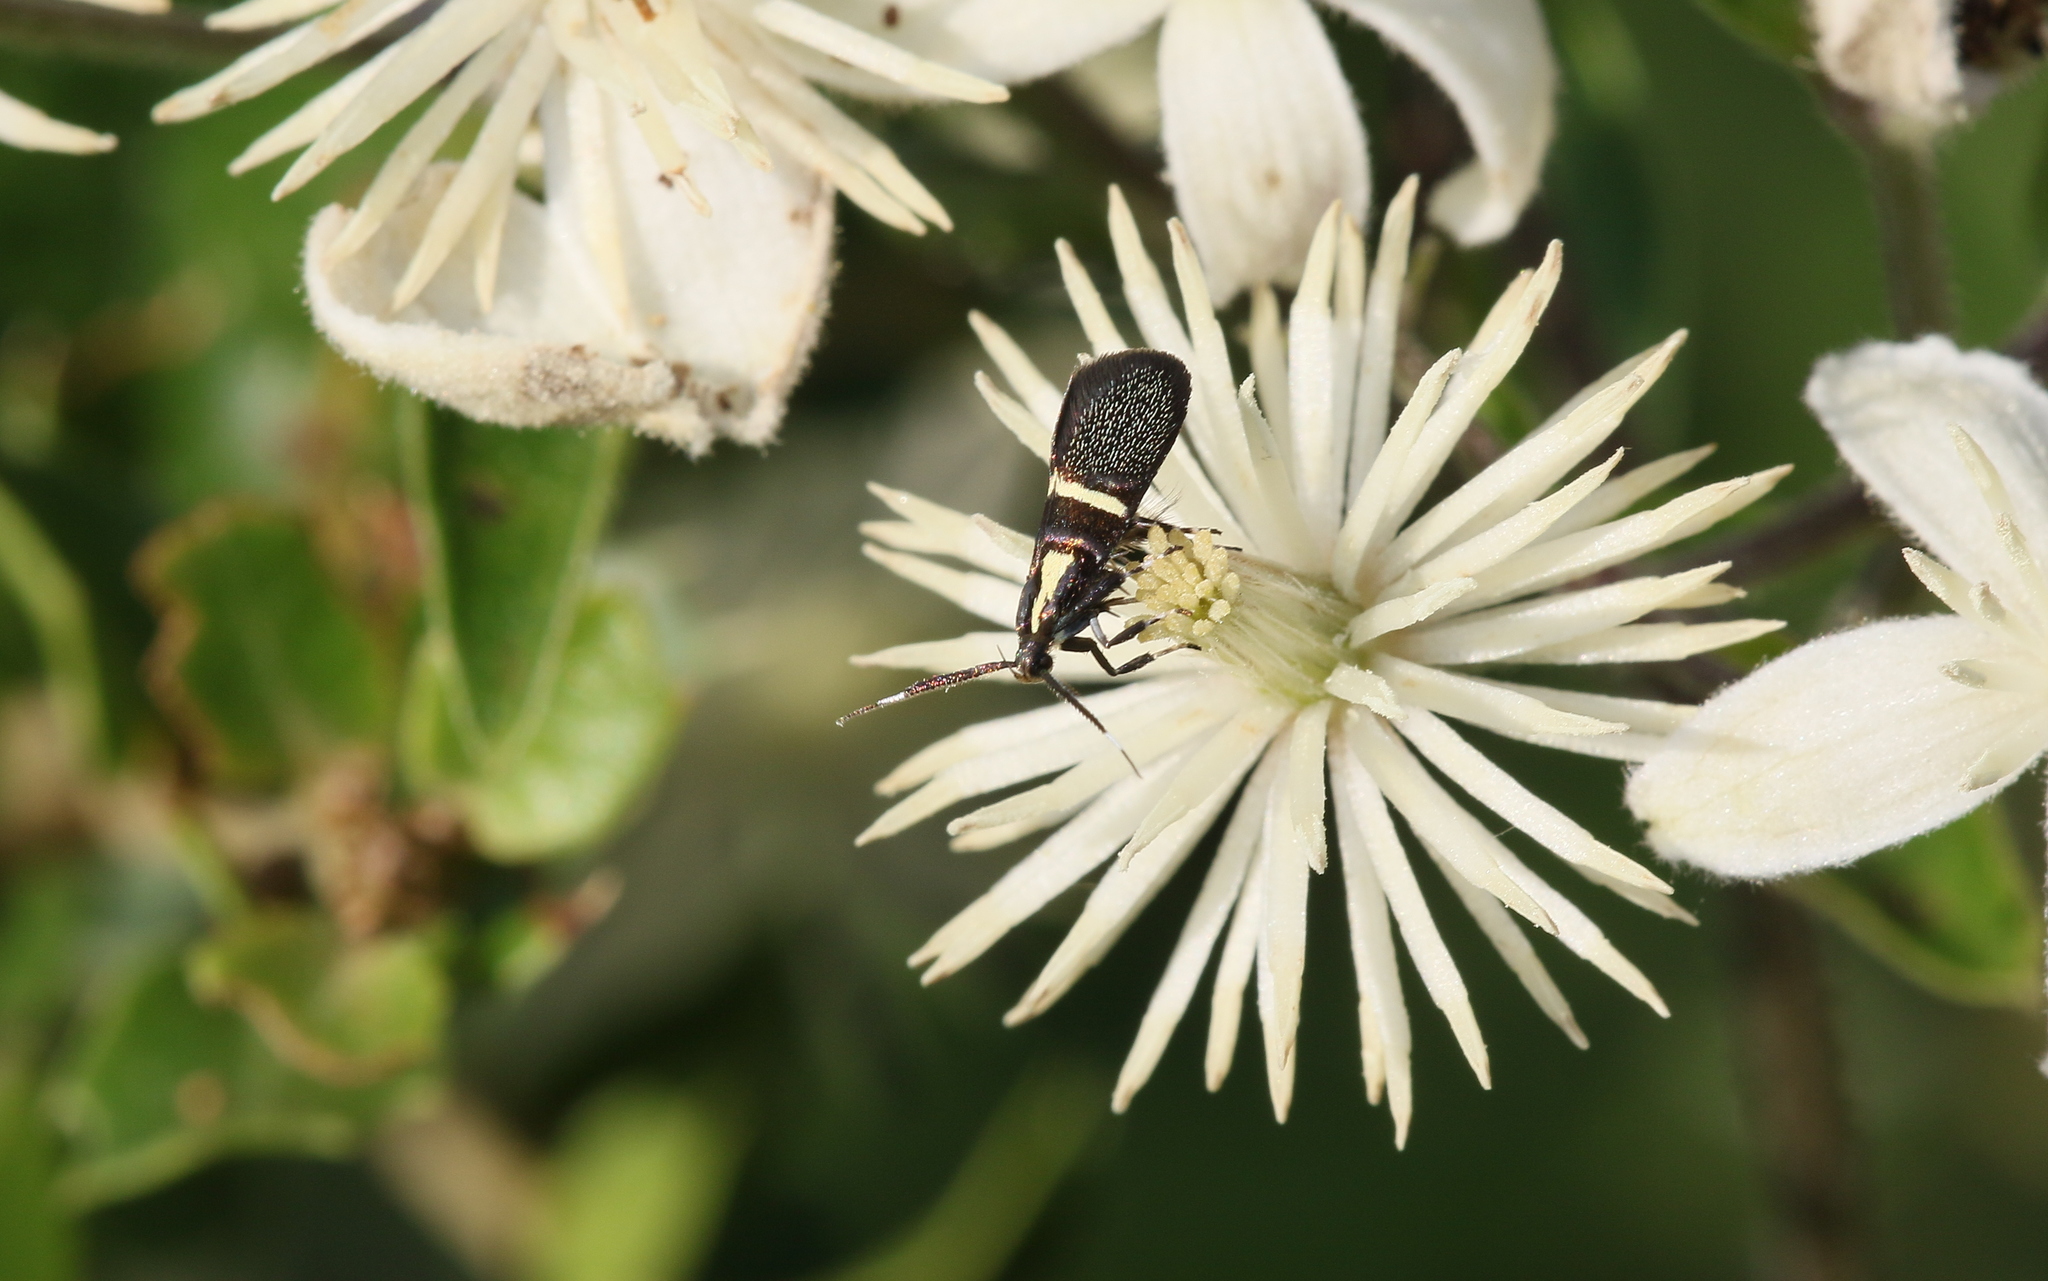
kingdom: Animalia
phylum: Arthropoda
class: Insecta
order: Lepidoptera
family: Oecophoridae
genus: Dafa
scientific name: Dafa oliviella
